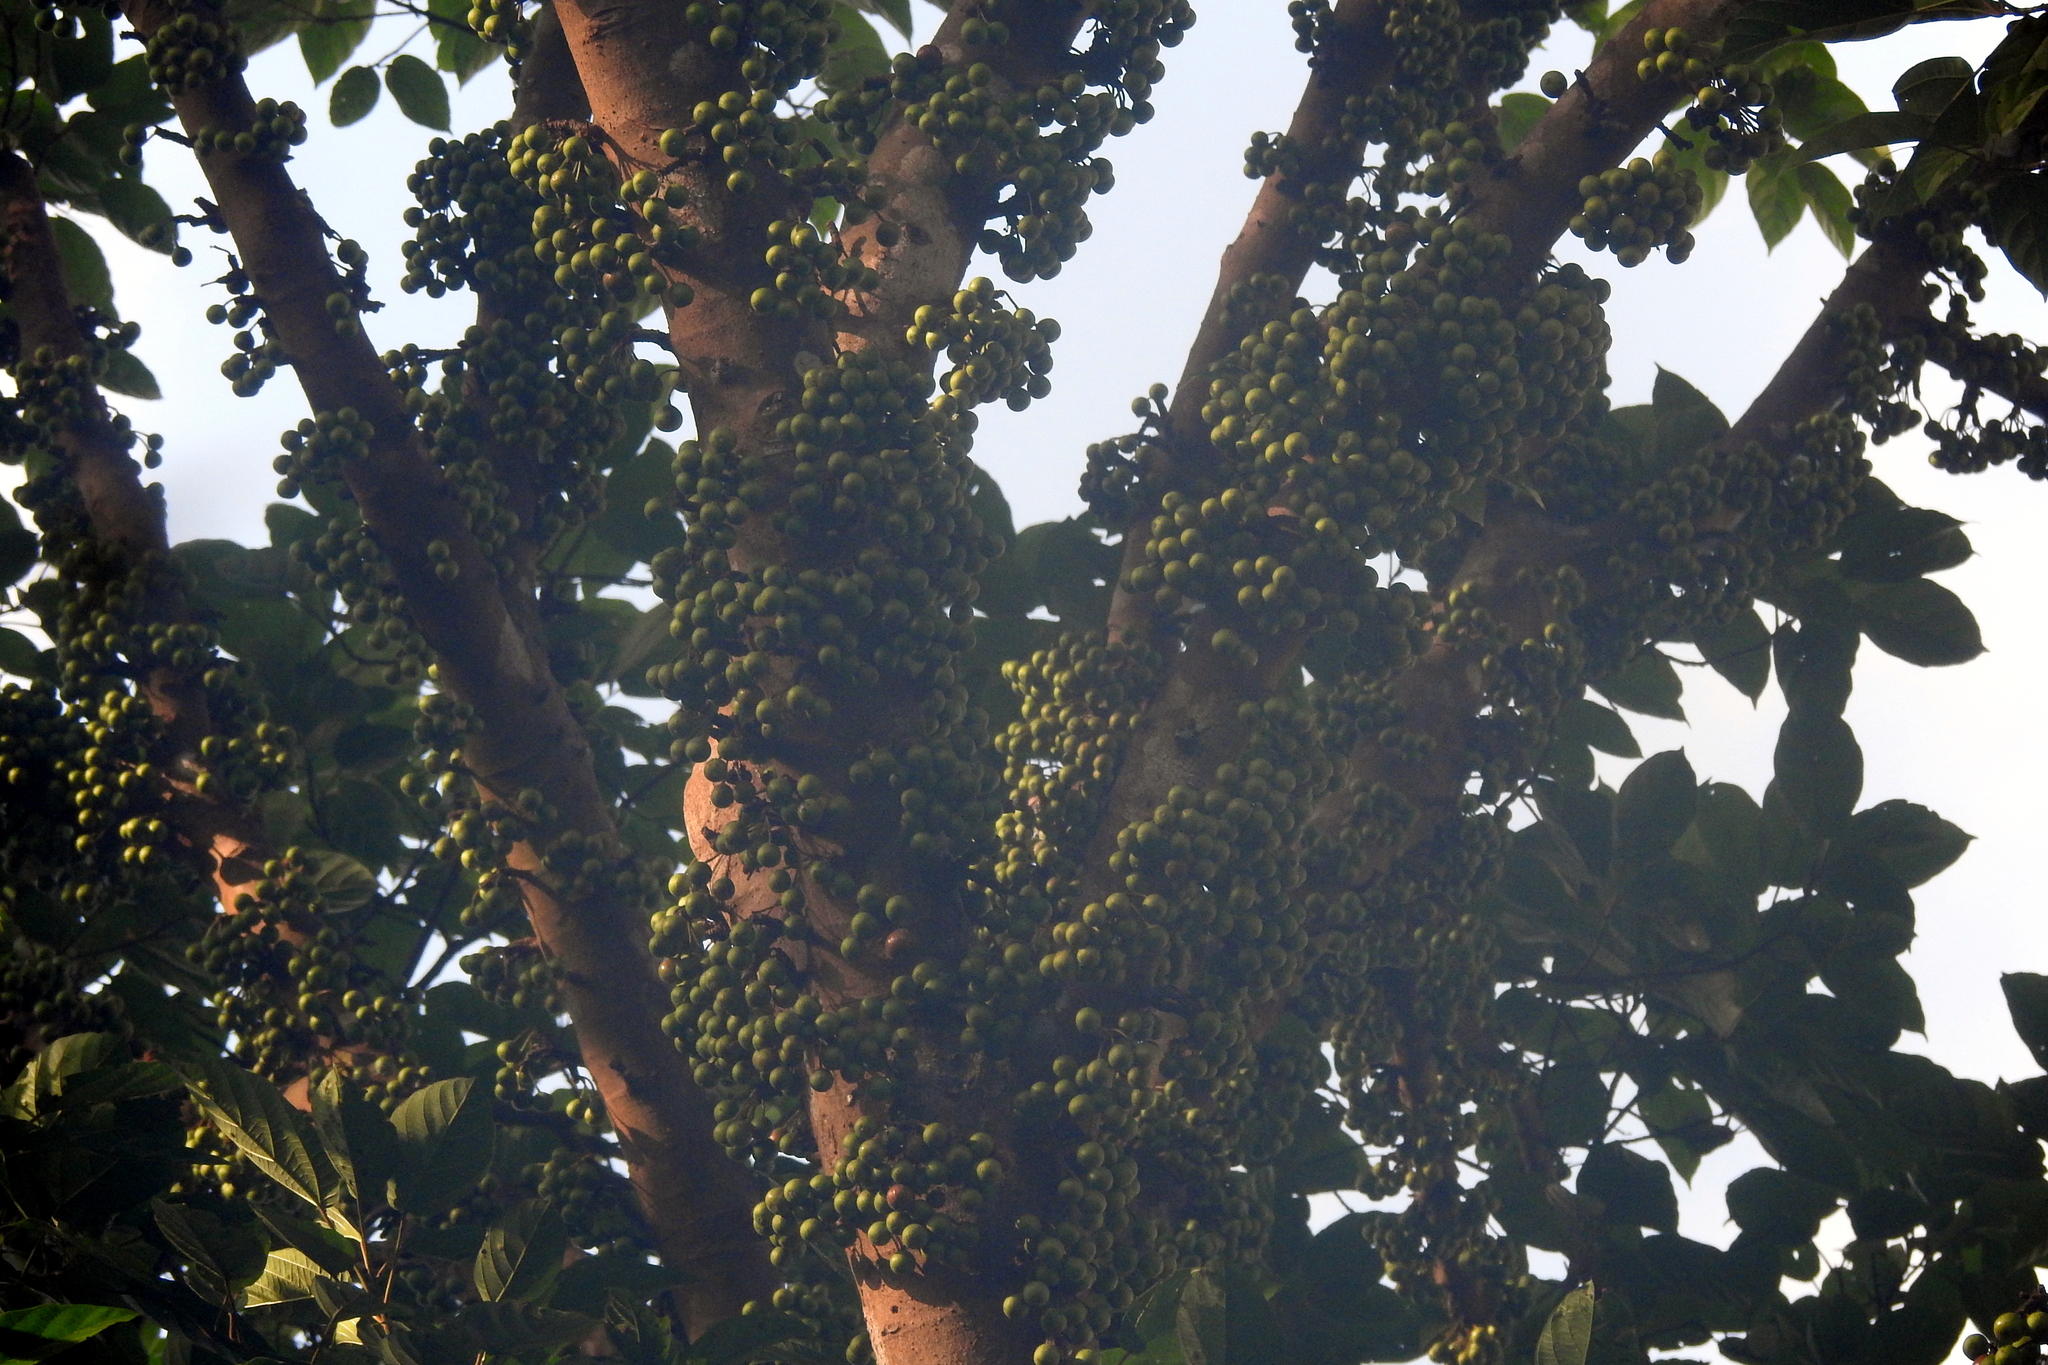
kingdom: Plantae
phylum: Tracheophyta
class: Magnoliopsida
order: Rosales
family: Moraceae
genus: Ficus
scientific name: Ficus variegata
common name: Variegated fig
